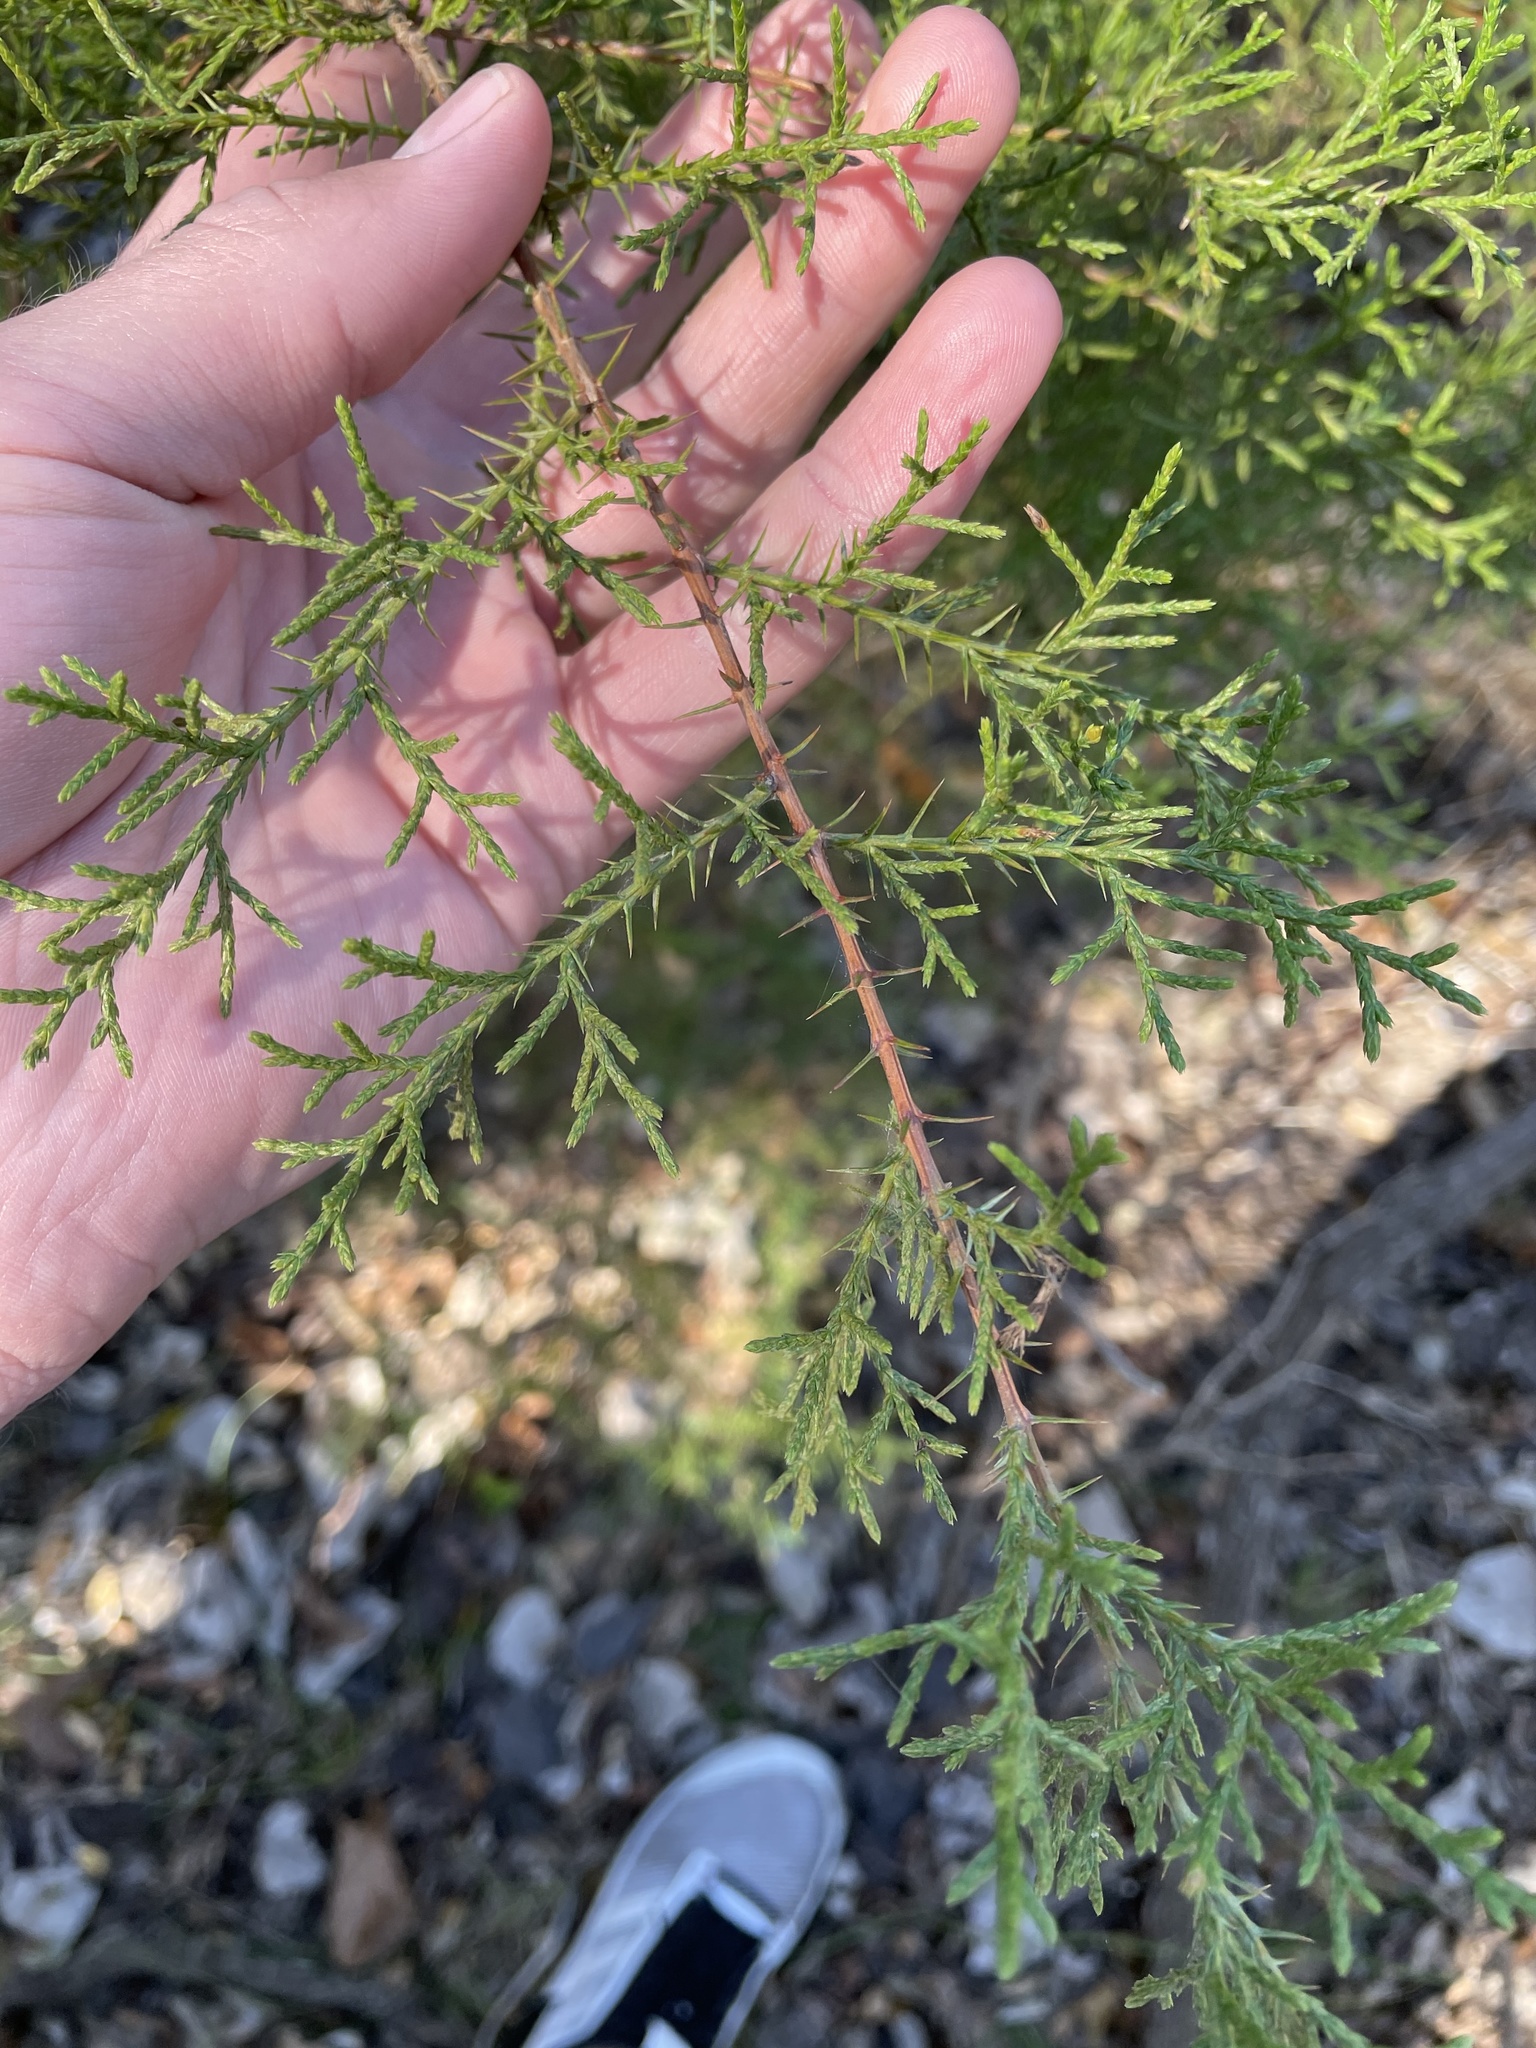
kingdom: Plantae
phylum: Tracheophyta
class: Pinopsida
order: Pinales
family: Cupressaceae
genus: Juniperus
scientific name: Juniperus ashei
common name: Mexican juniper
